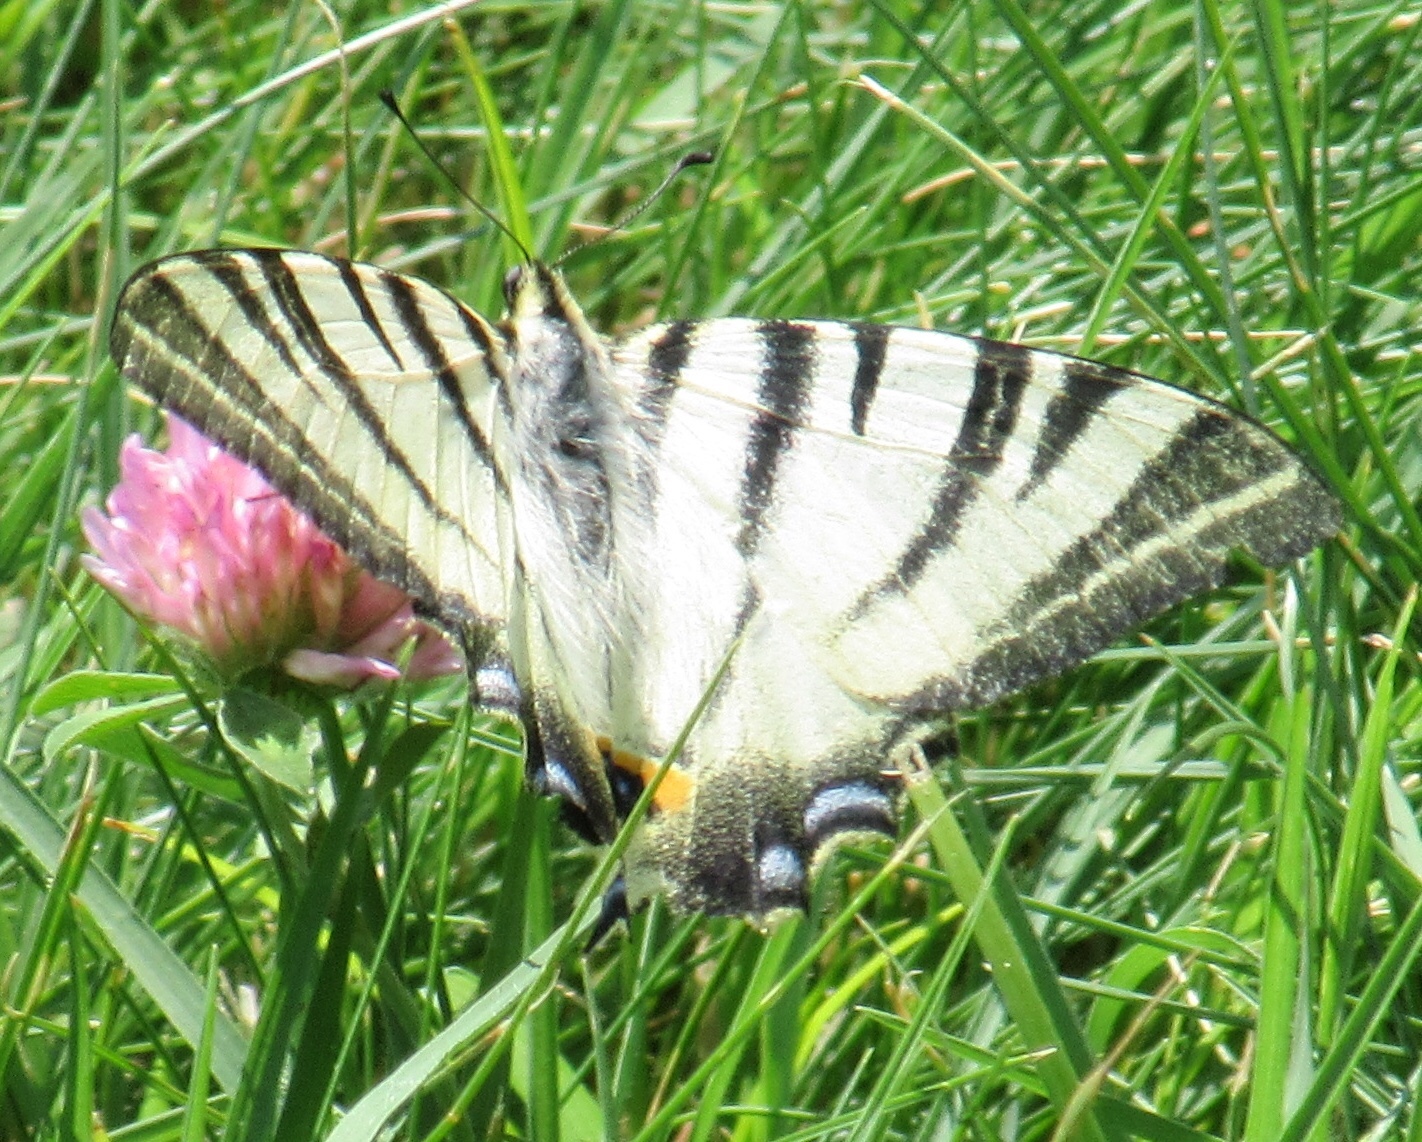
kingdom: Animalia
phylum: Arthropoda
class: Insecta
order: Lepidoptera
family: Papilionidae
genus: Iphiclides
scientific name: Iphiclides podalirius
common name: Scarce swallowtail
